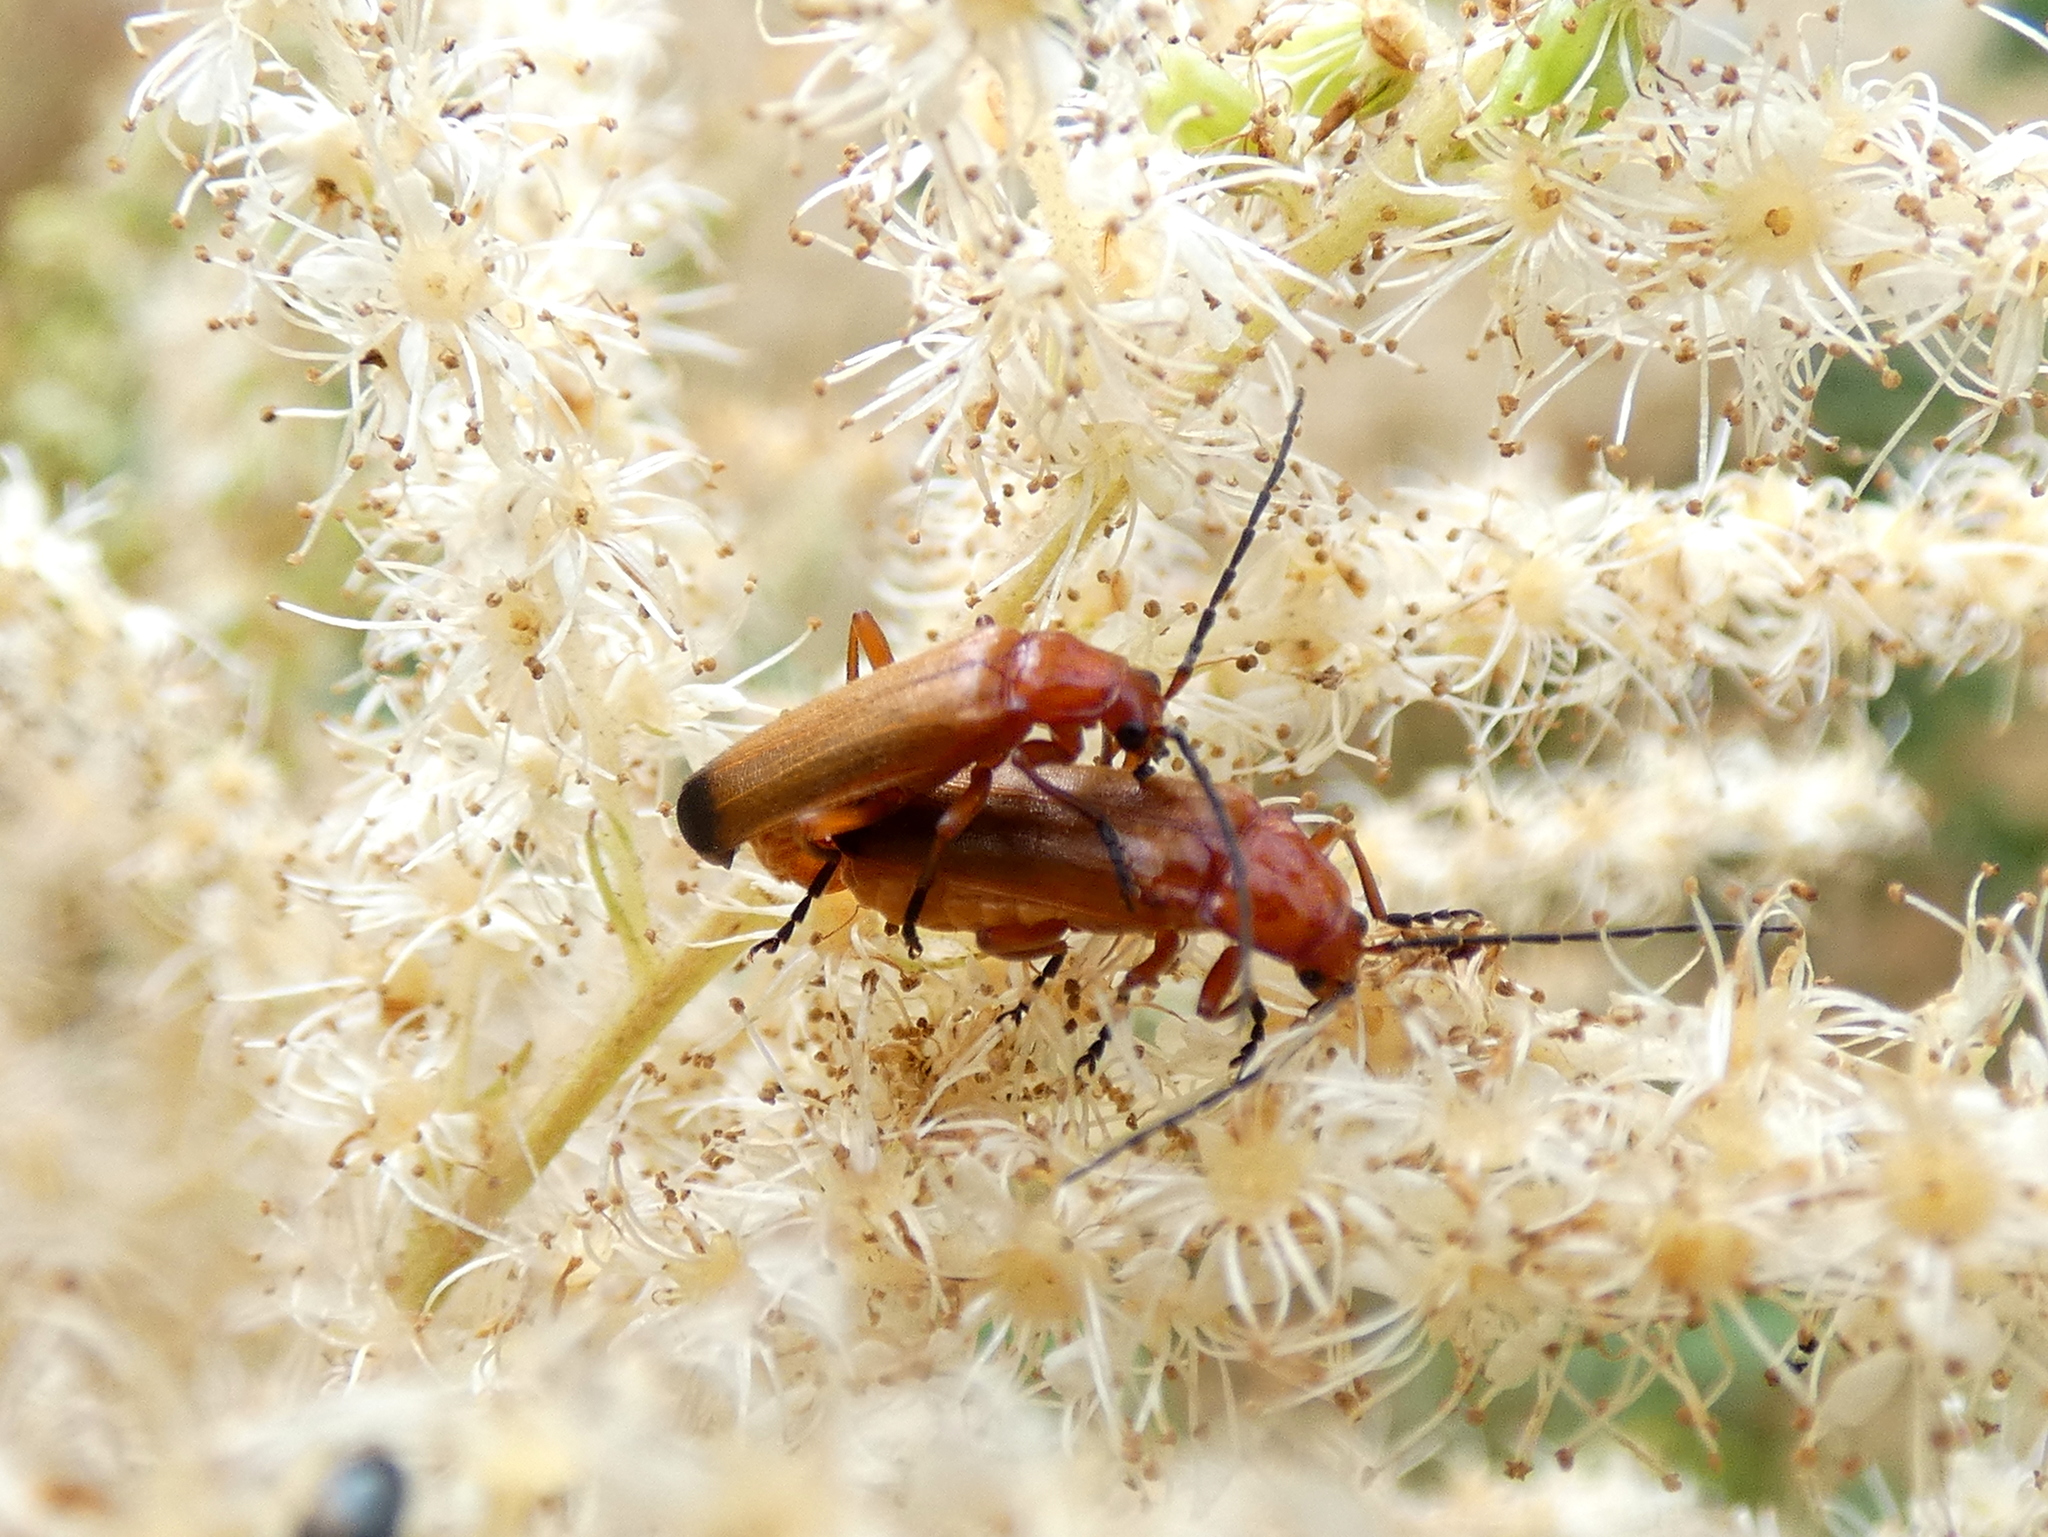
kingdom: Animalia
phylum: Arthropoda
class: Insecta
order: Coleoptera
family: Cantharidae
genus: Rhagonycha
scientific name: Rhagonycha fulva
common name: Common red soldier beetle
